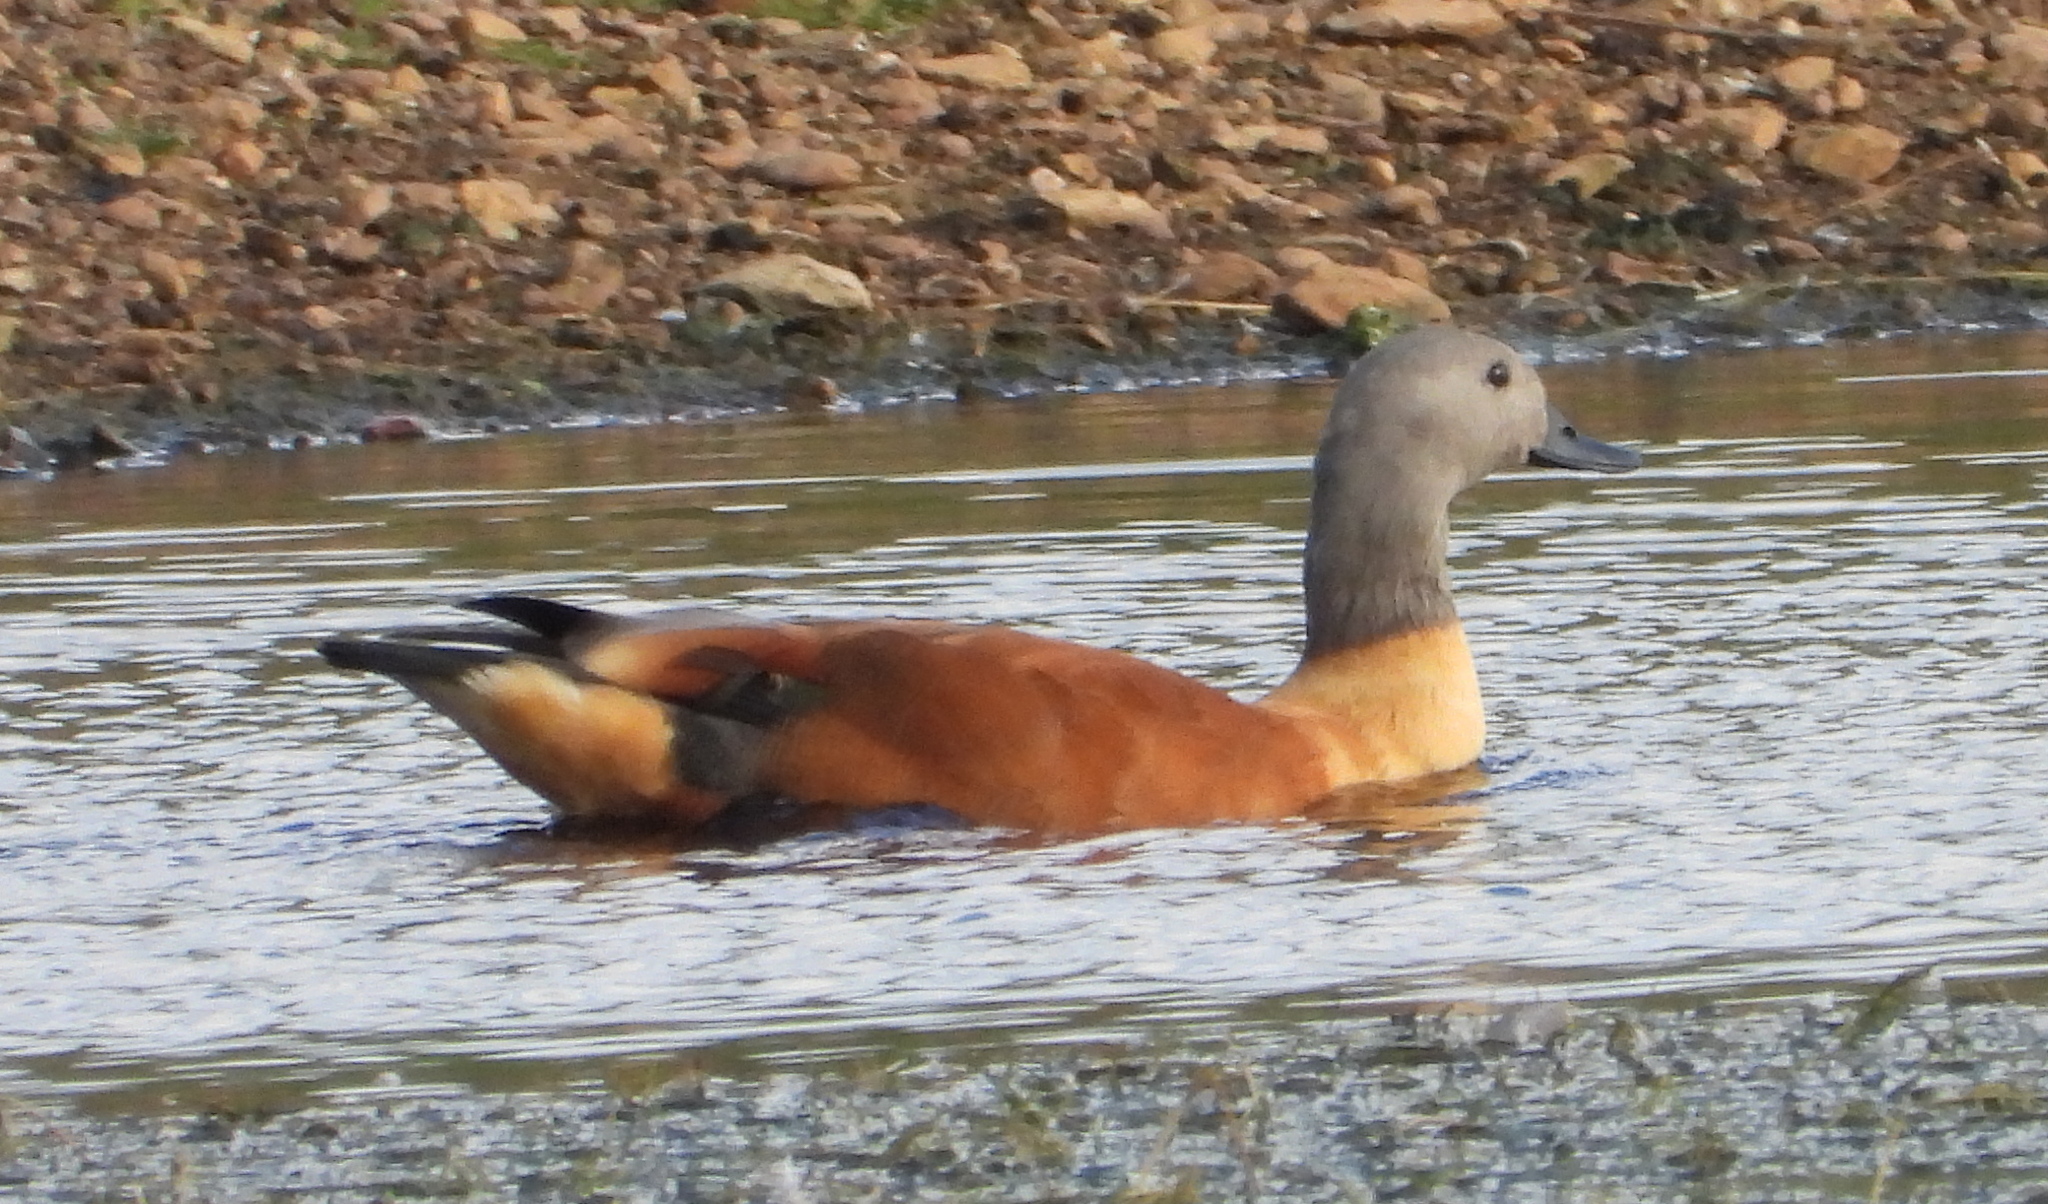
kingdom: Animalia
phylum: Chordata
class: Aves
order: Anseriformes
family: Anatidae
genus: Tadorna
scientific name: Tadorna cana
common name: South african shelduck
